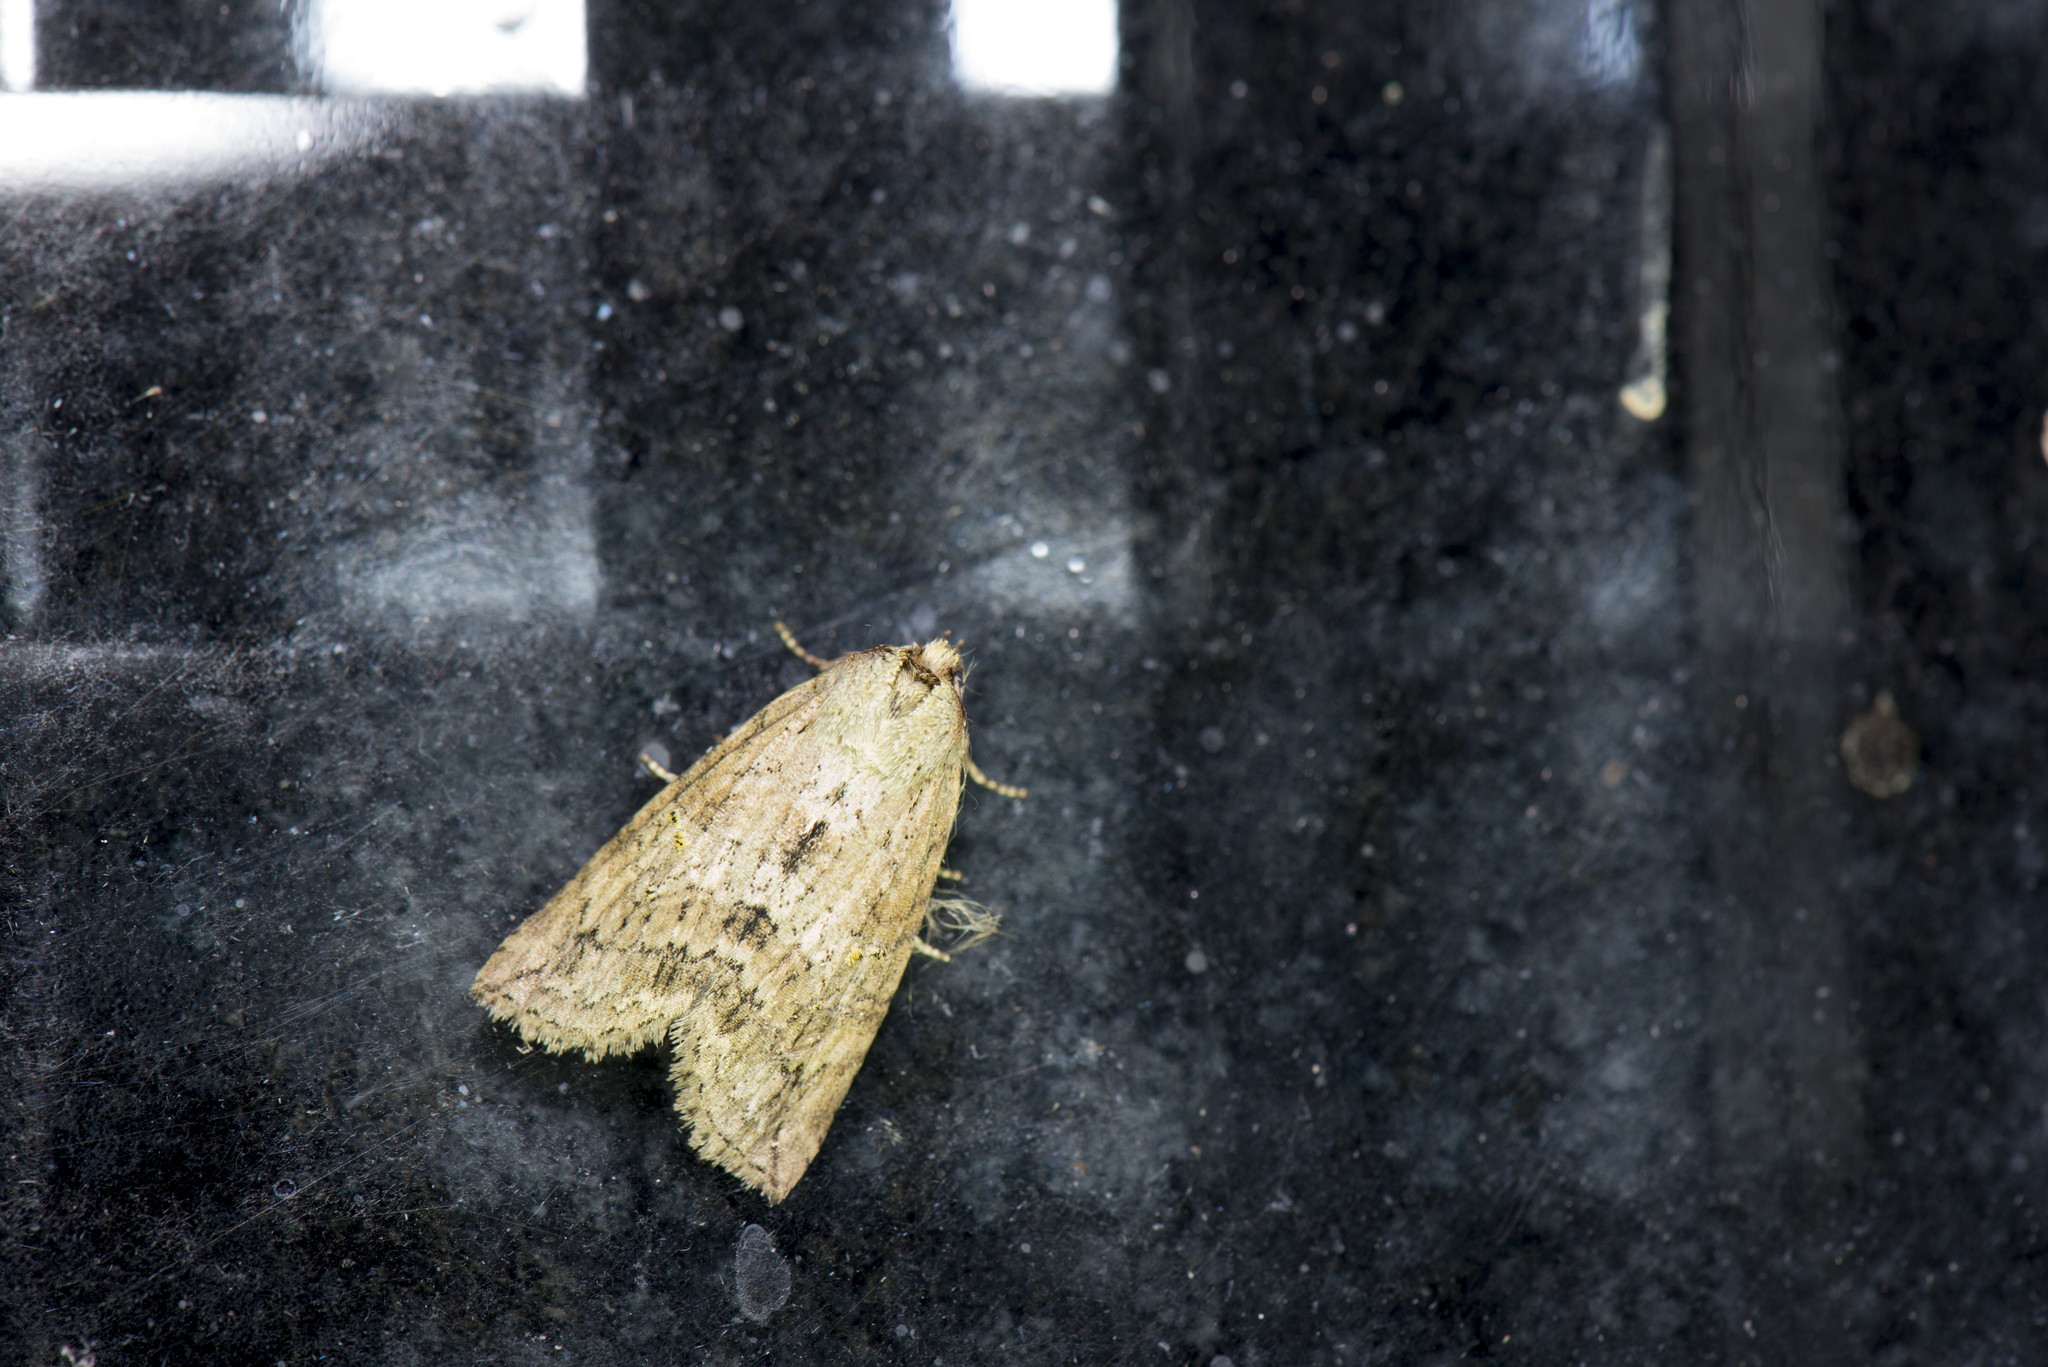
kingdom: Animalia
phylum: Arthropoda
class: Insecta
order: Lepidoptera
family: Drepanidae
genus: Epipsestis
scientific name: Epipsestis bilineata
